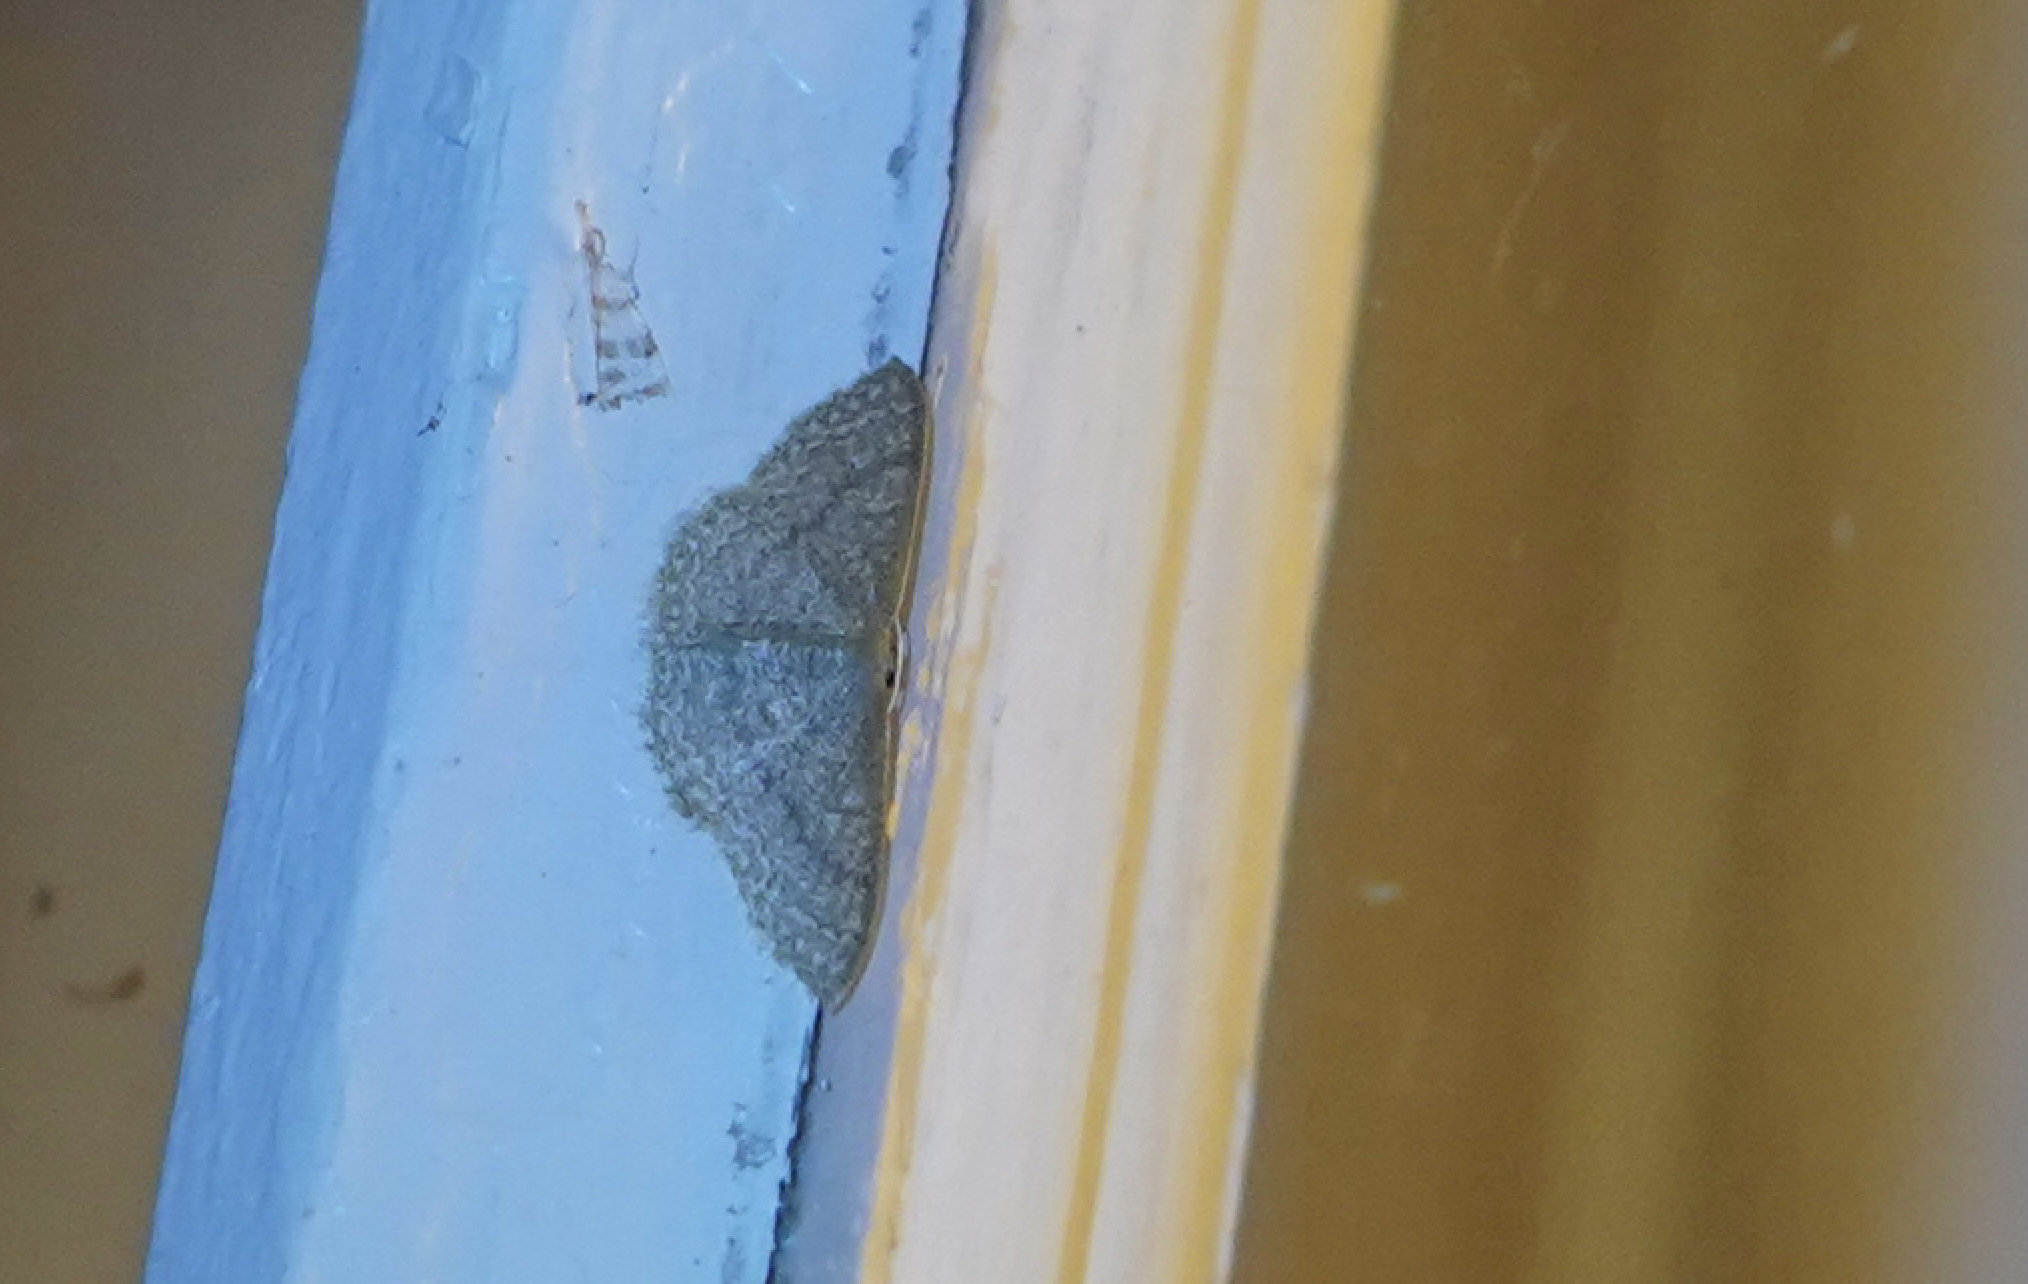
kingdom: Animalia
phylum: Arthropoda
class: Insecta
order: Lepidoptera
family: Geometridae
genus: Pleuroprucha
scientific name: Pleuroprucha insulsaria
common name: Common tan wave
